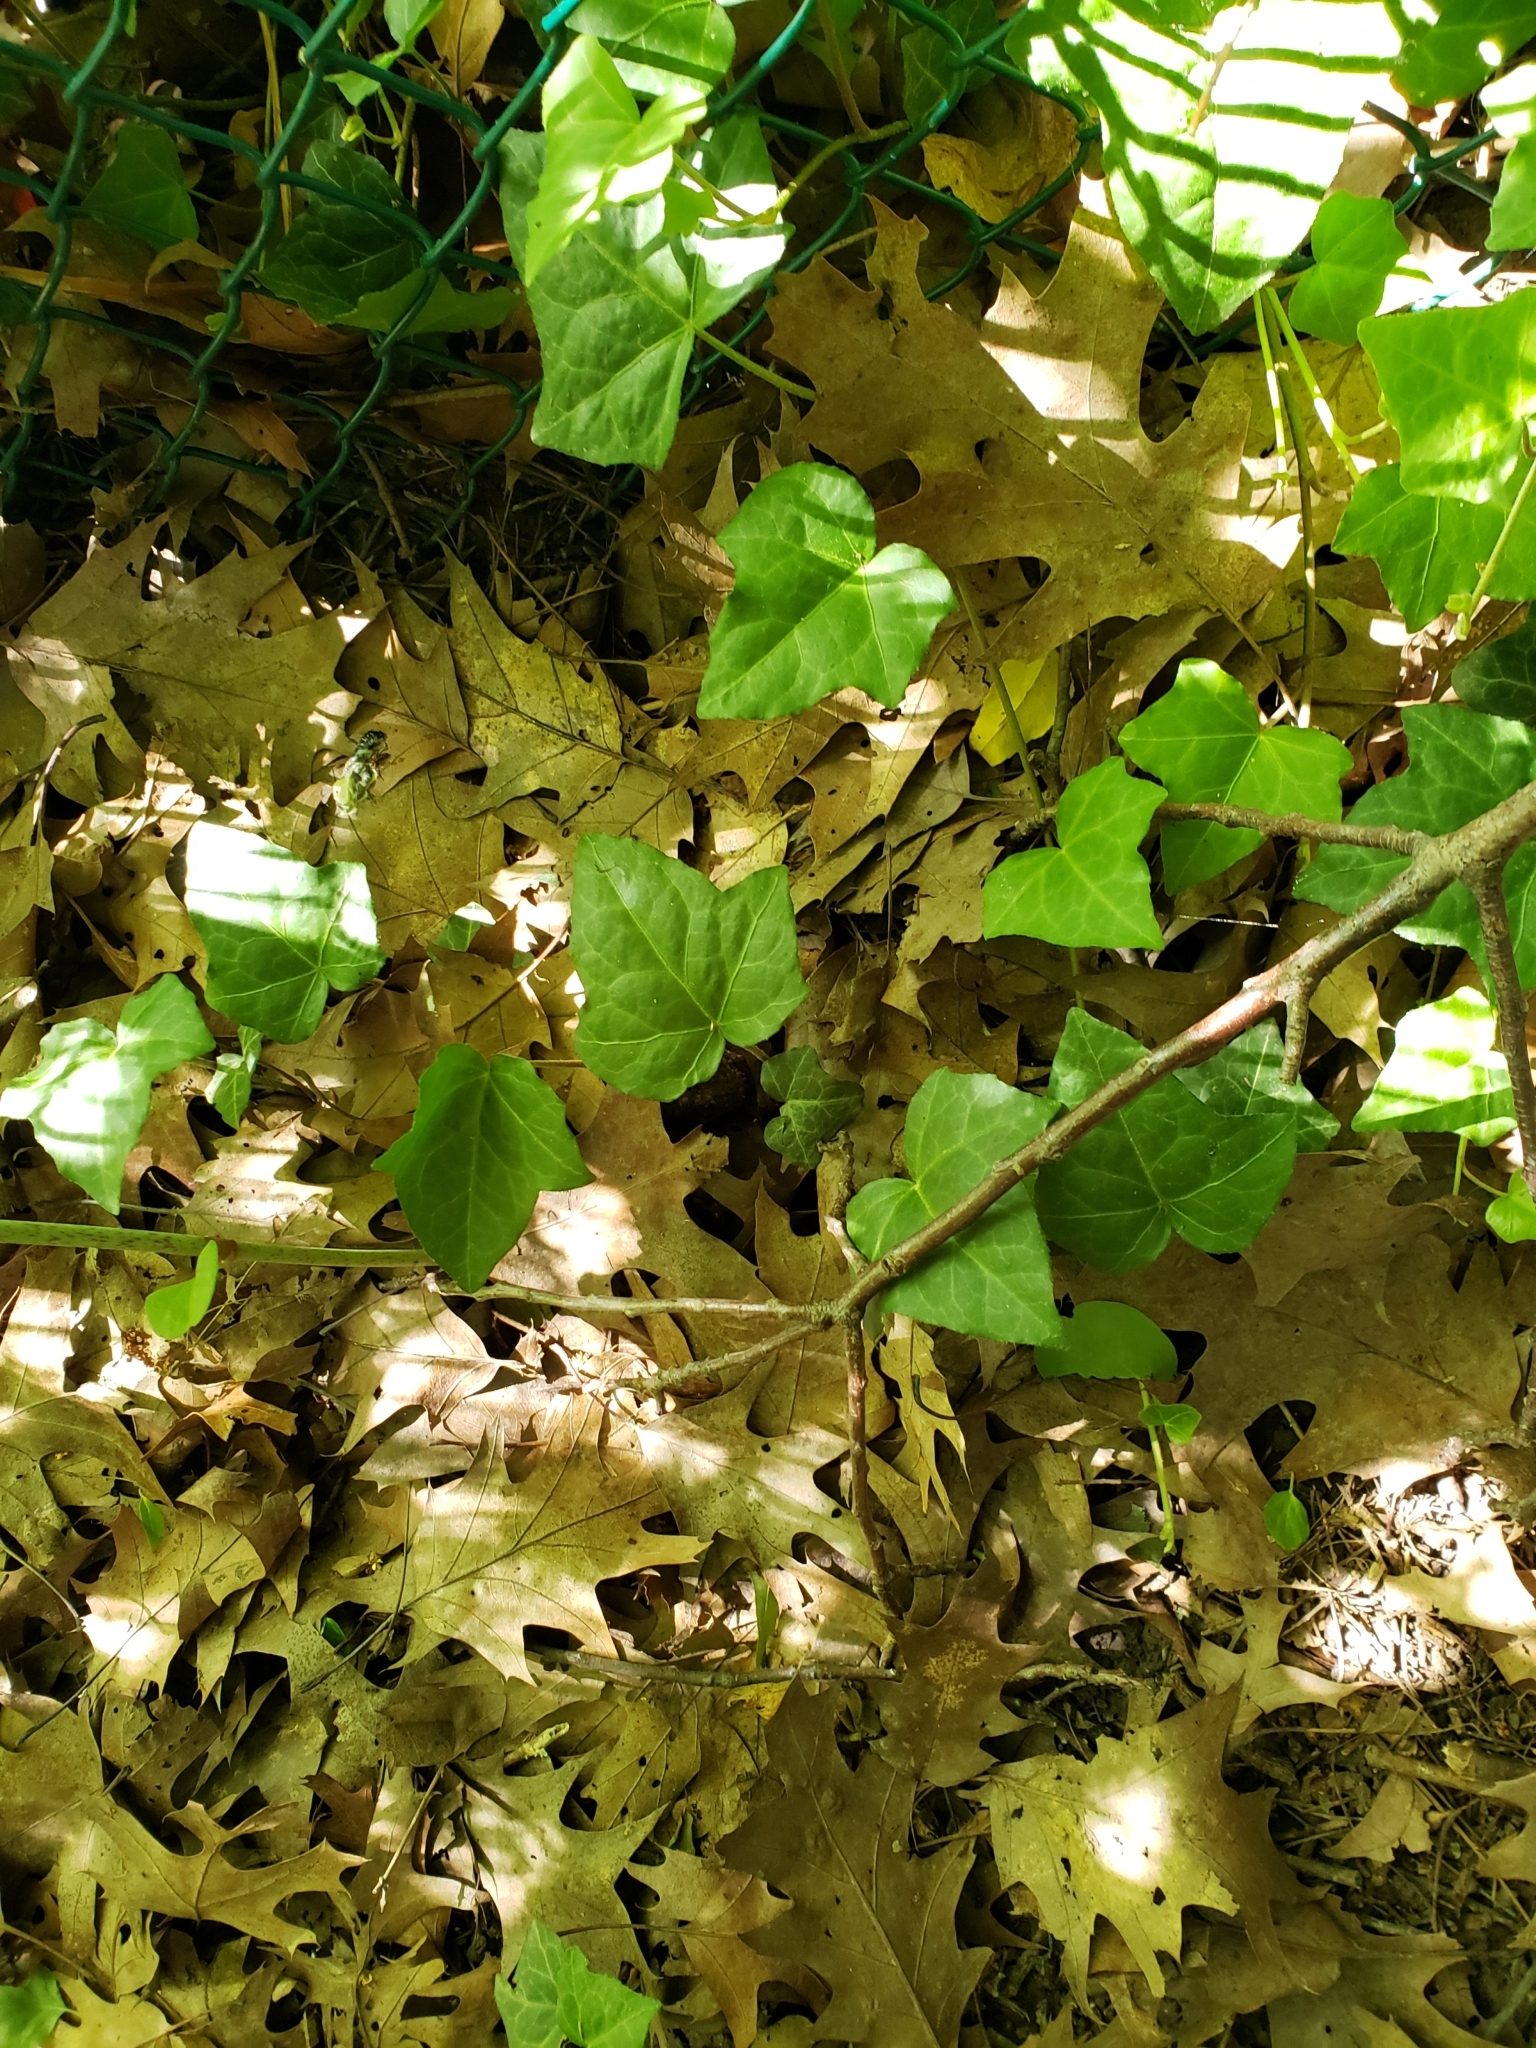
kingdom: Plantae
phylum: Tracheophyta
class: Magnoliopsida
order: Apiales
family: Araliaceae
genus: Hedera
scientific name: Hedera helix
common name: Ivy
